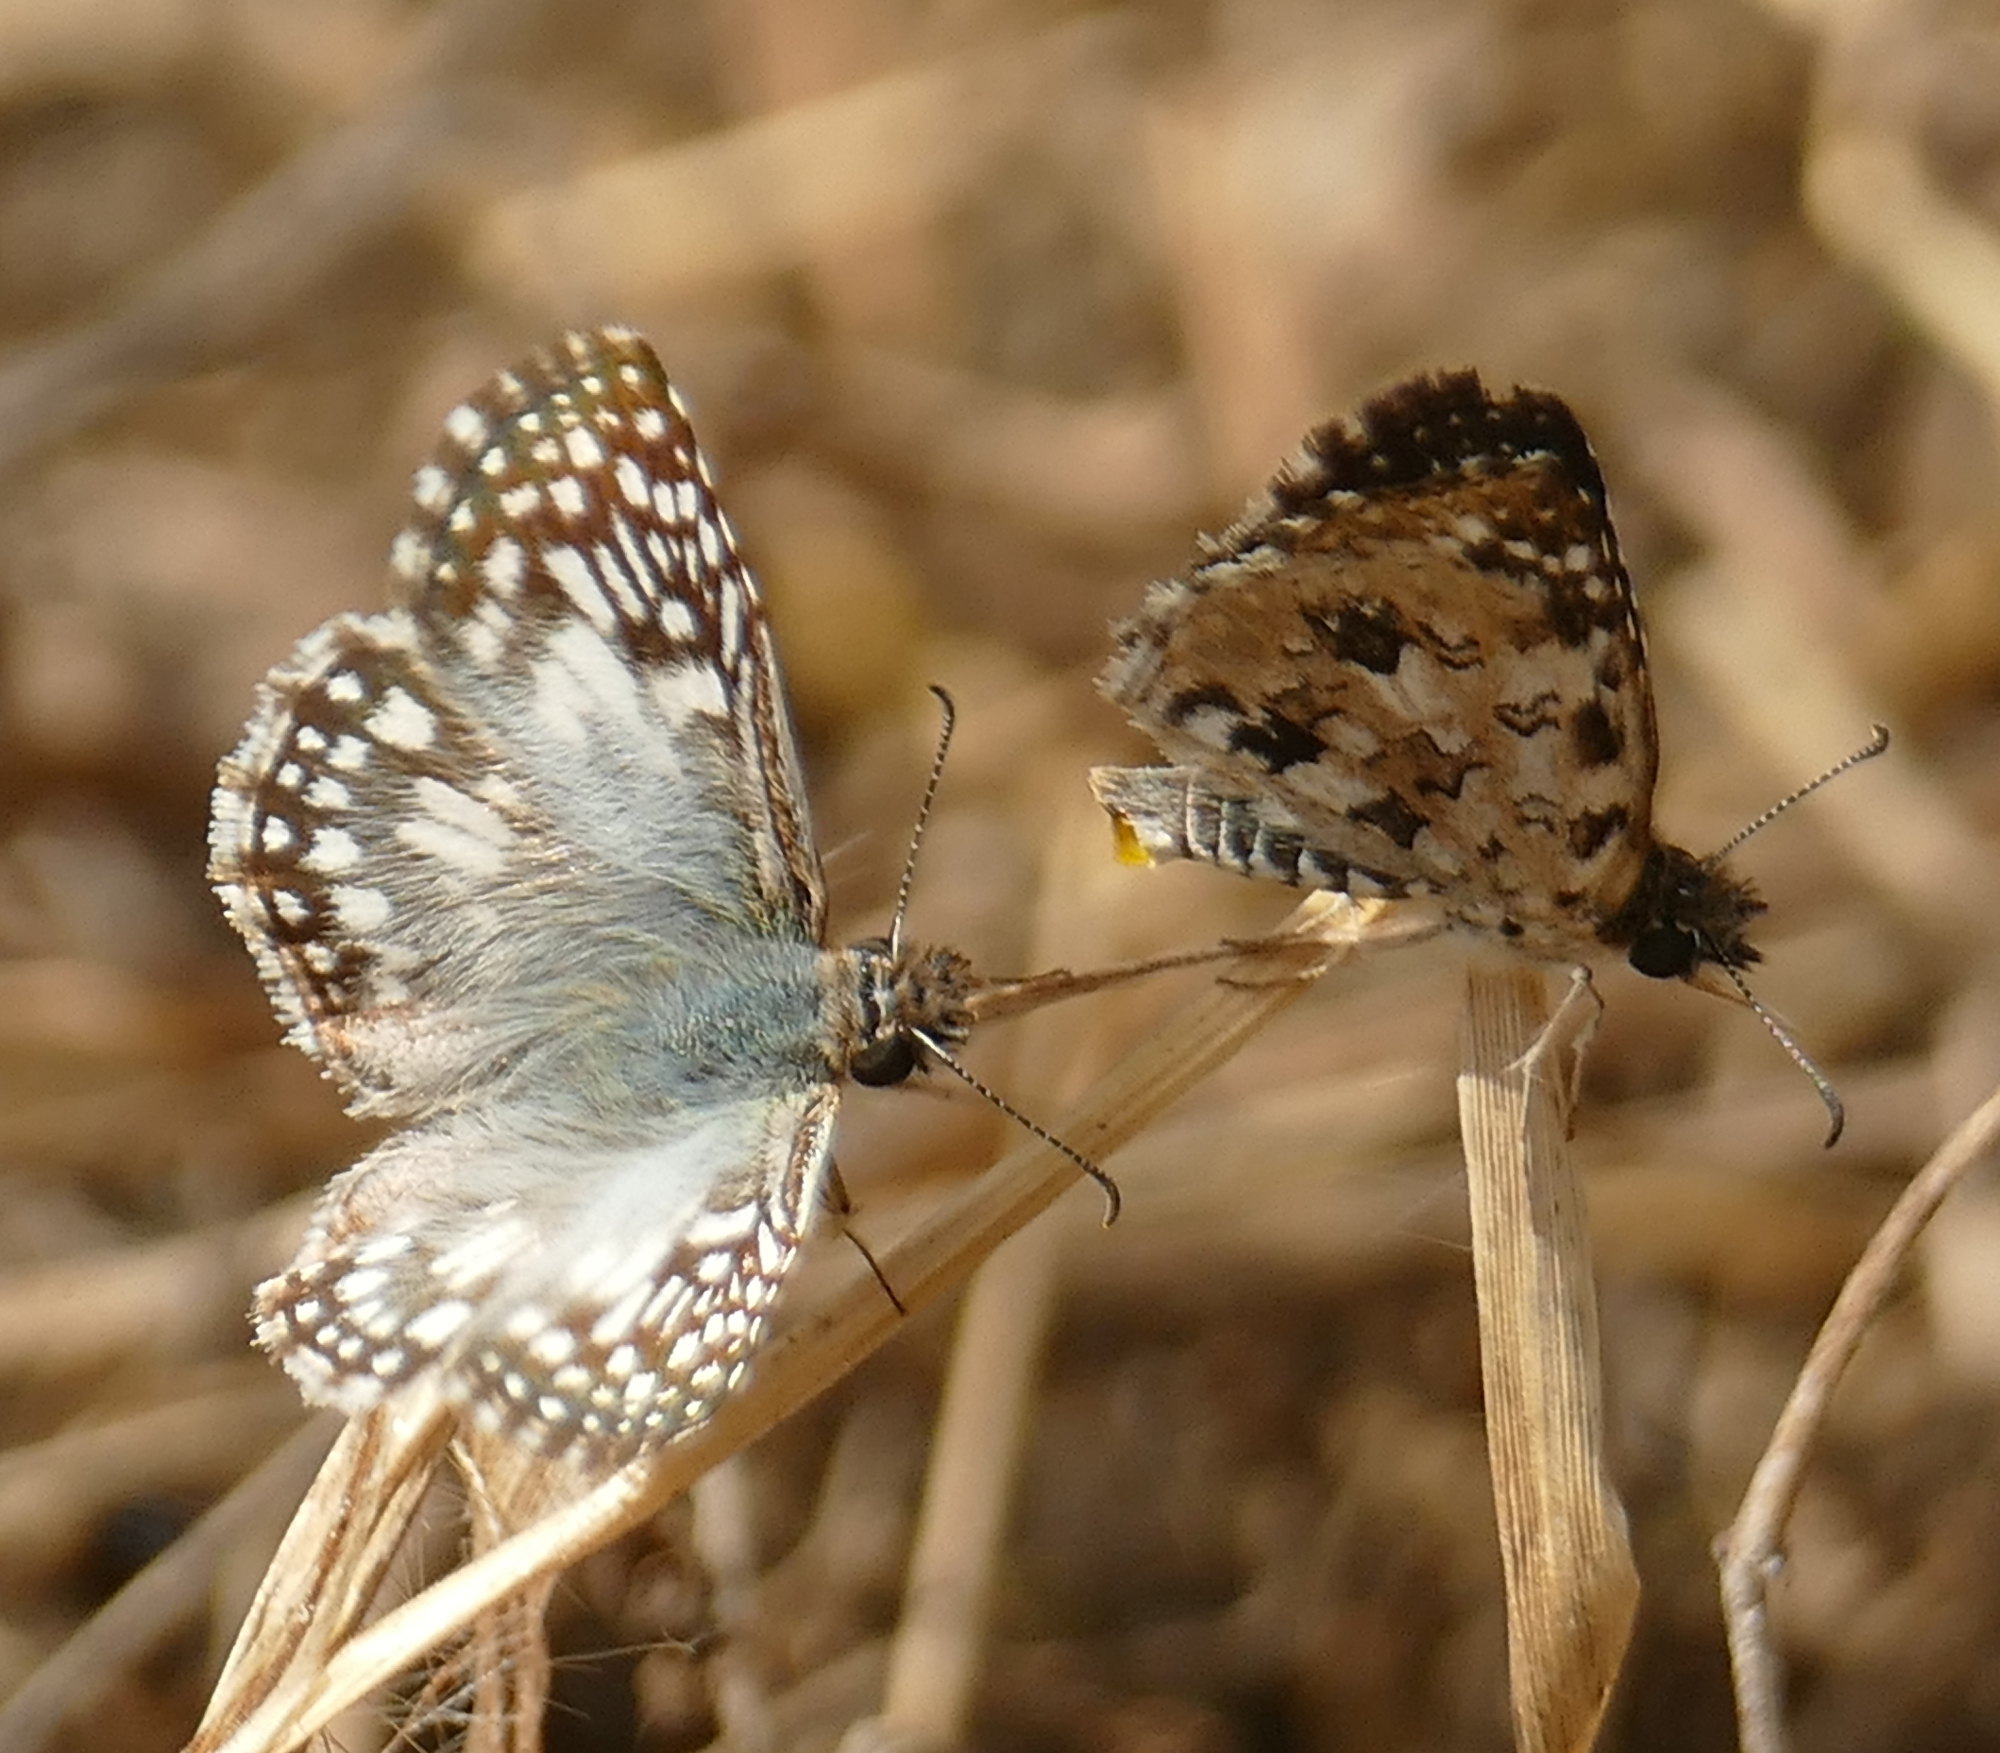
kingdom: Animalia
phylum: Arthropoda
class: Insecta
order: Lepidoptera
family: Hesperiidae
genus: Pyrgus
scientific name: Pyrgus oileus
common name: Tropical checkered-skipper
